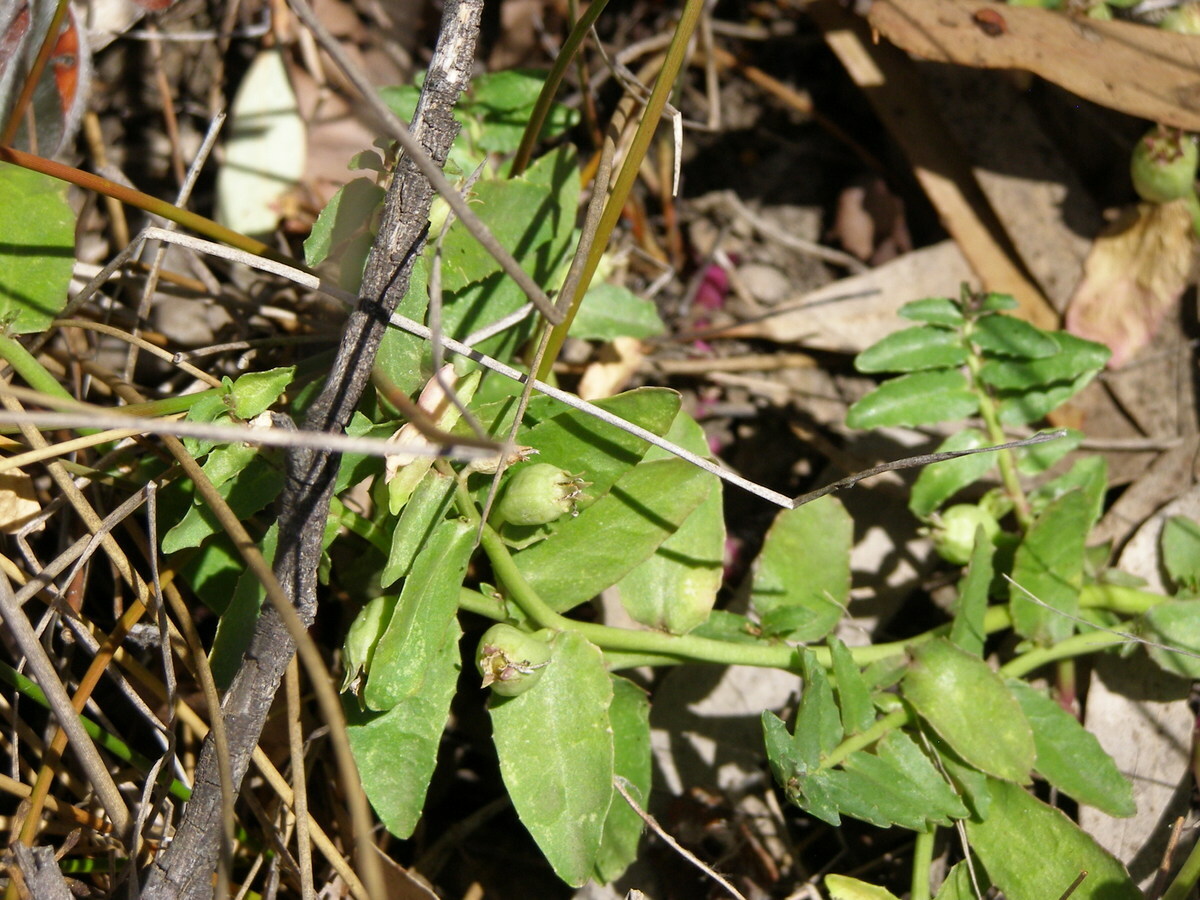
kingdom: Plantae
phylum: Tracheophyta
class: Magnoliopsida
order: Asterales
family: Campanulaceae
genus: Lobelia
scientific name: Lobelia concolor
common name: Poison pratia
